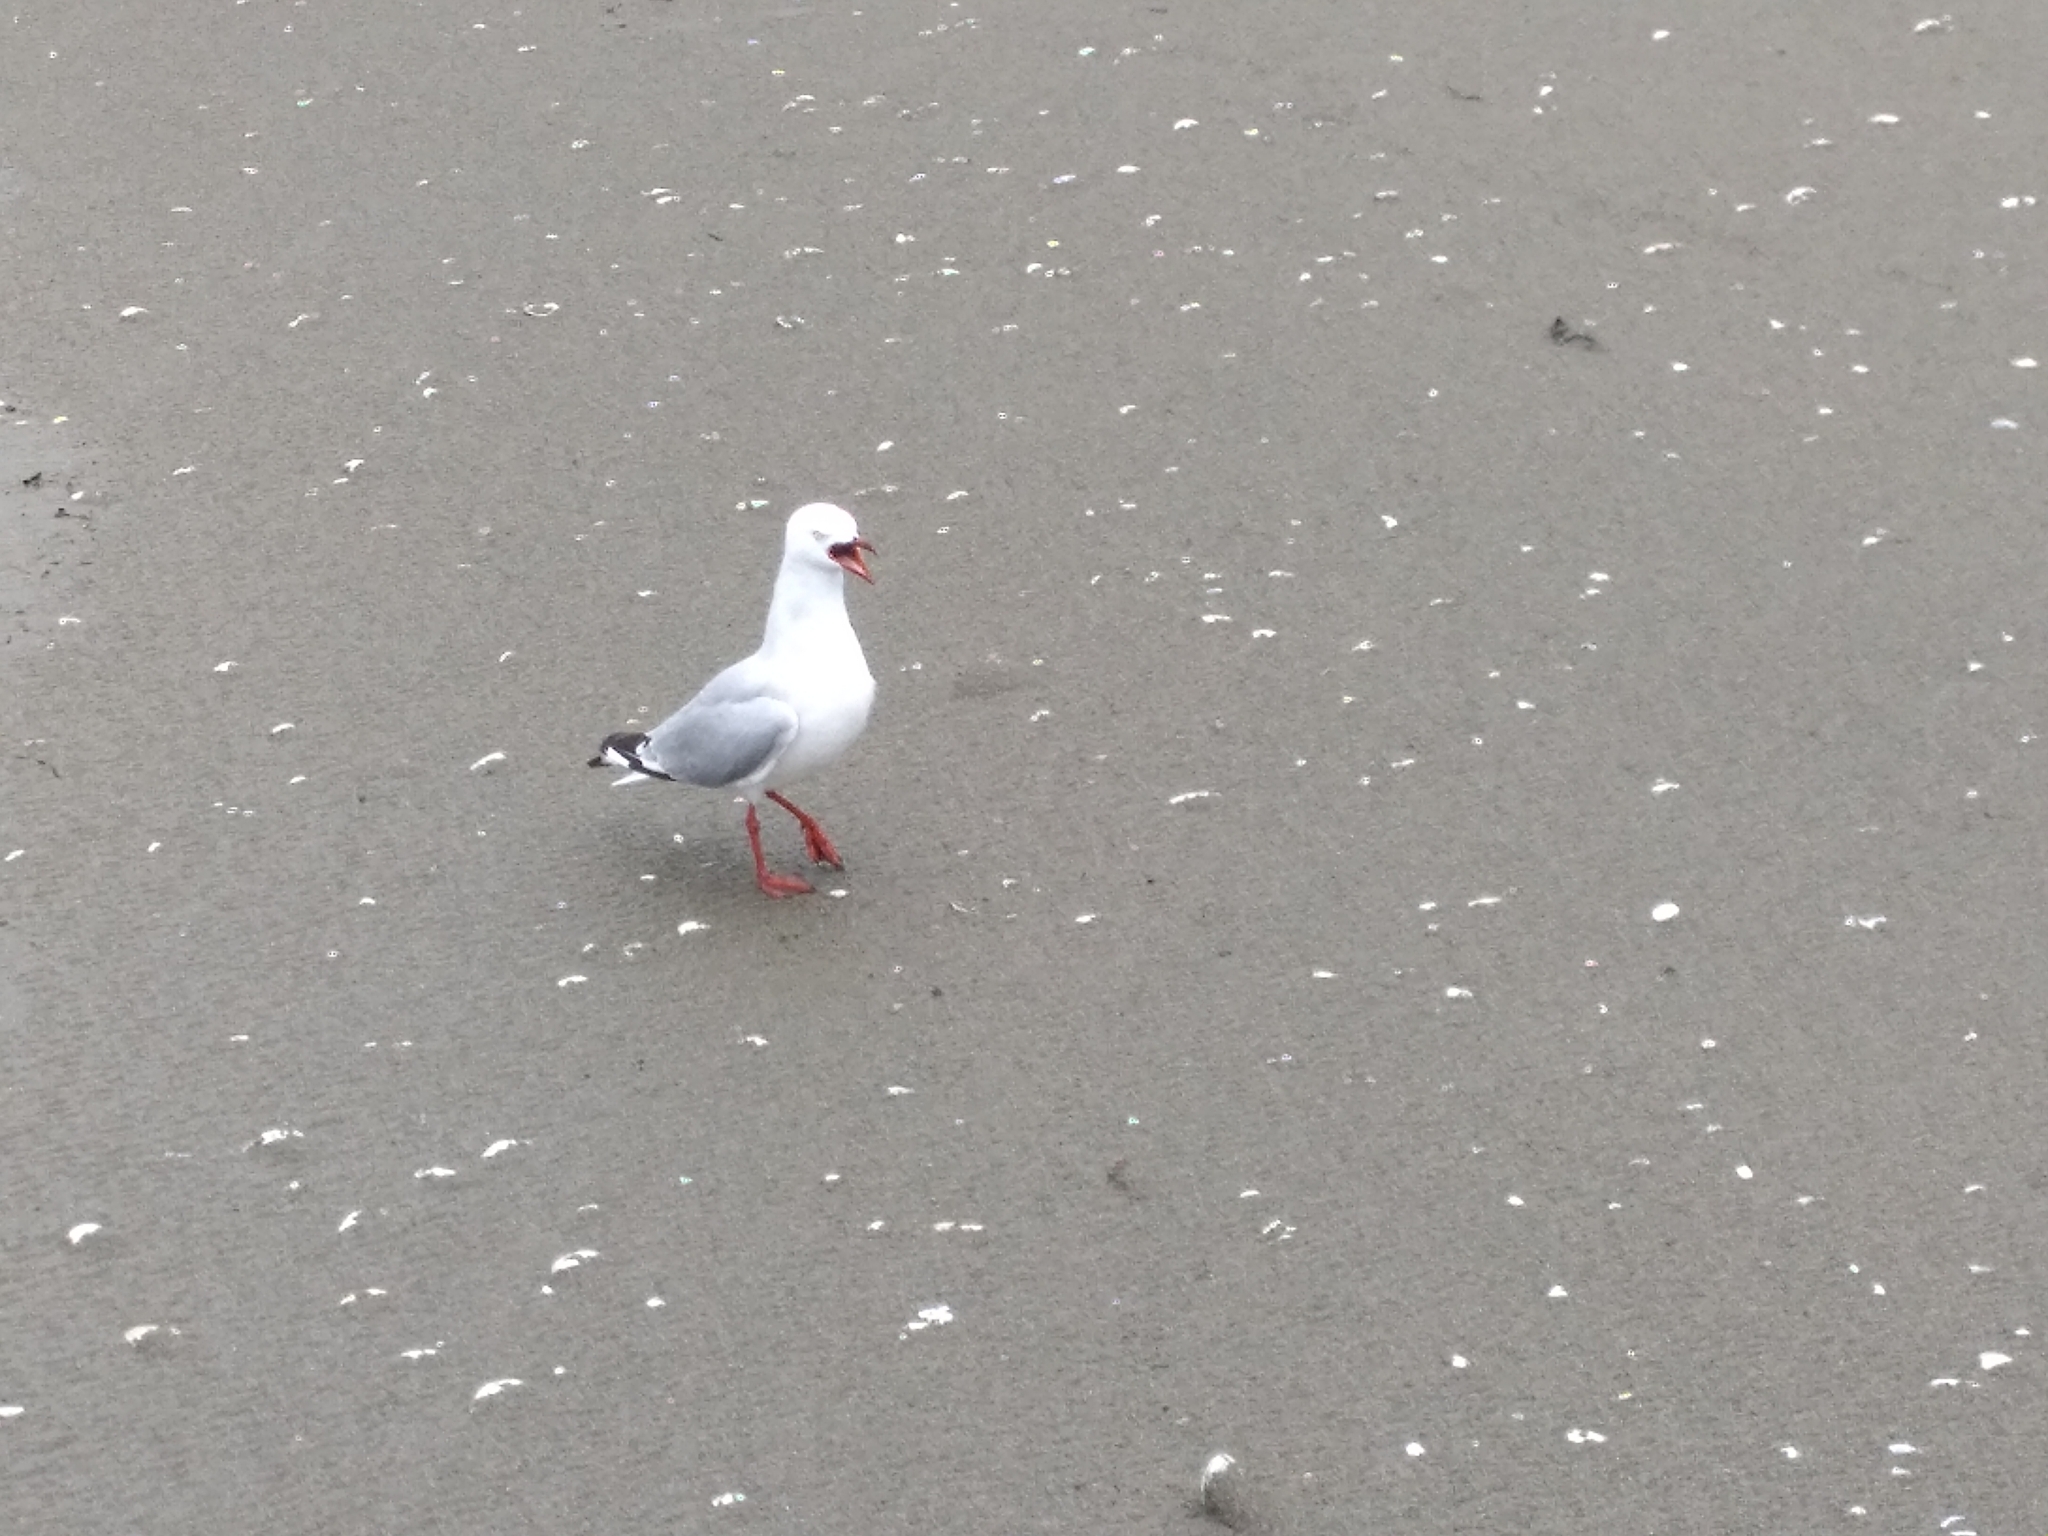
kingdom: Animalia
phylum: Chordata
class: Aves
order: Charadriiformes
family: Laridae
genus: Chroicocephalus
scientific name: Chroicocephalus novaehollandiae
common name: Silver gull
